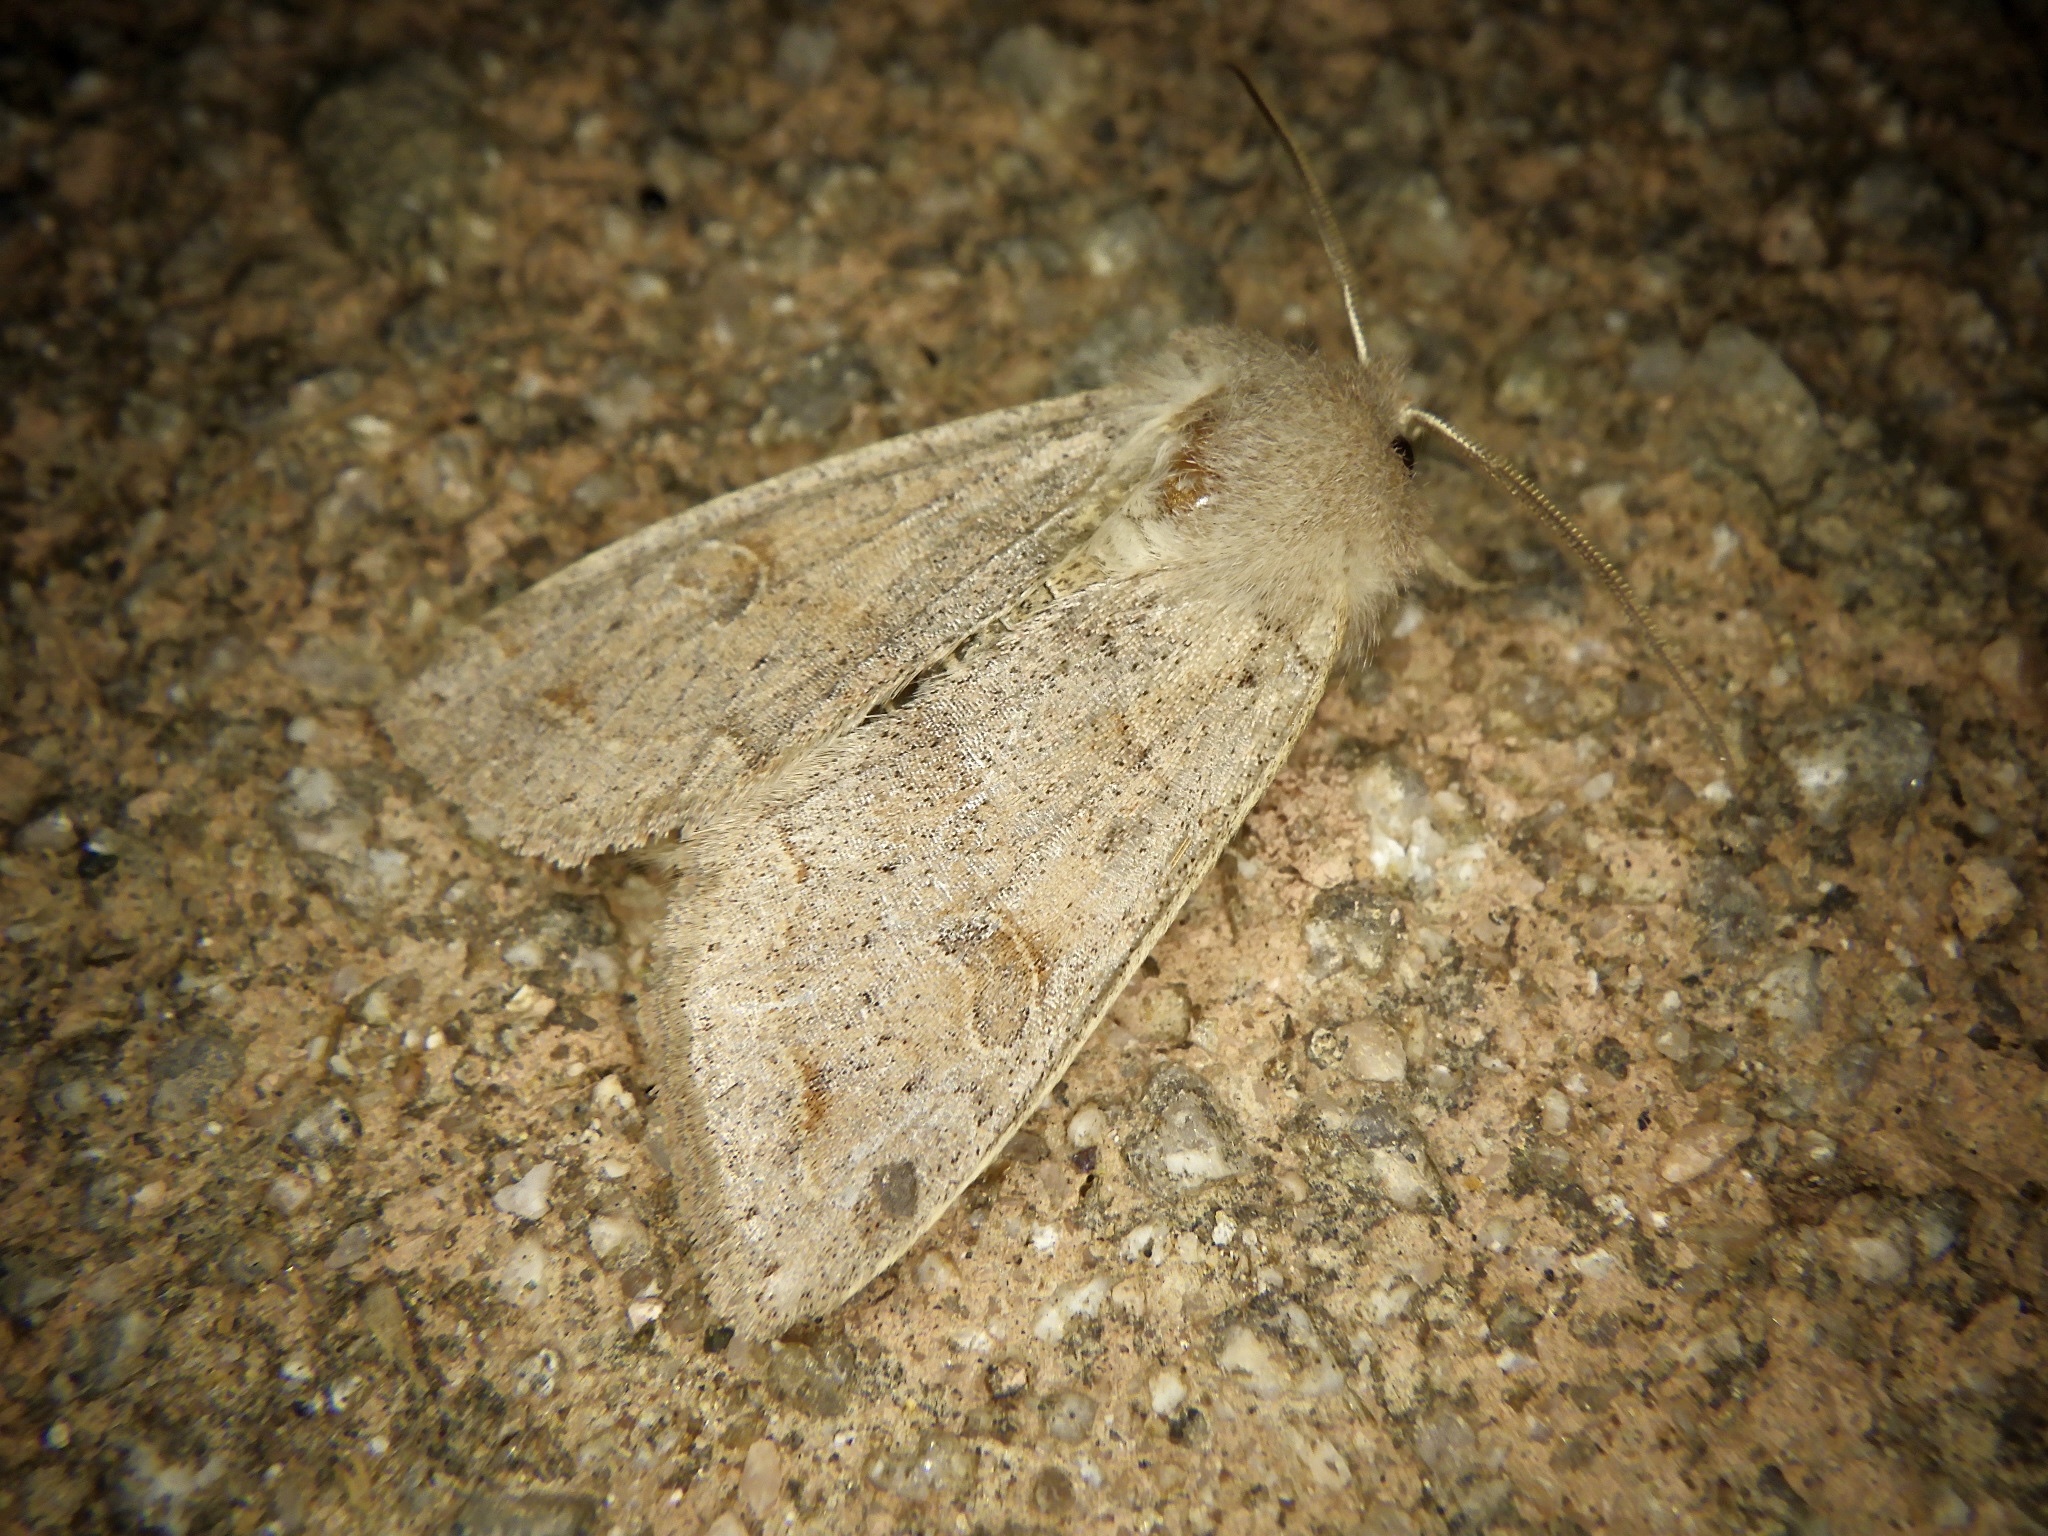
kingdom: Animalia
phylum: Arthropoda
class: Insecta
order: Lepidoptera
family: Noctuidae
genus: Anorthoa
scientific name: Anorthoa angustipennis
